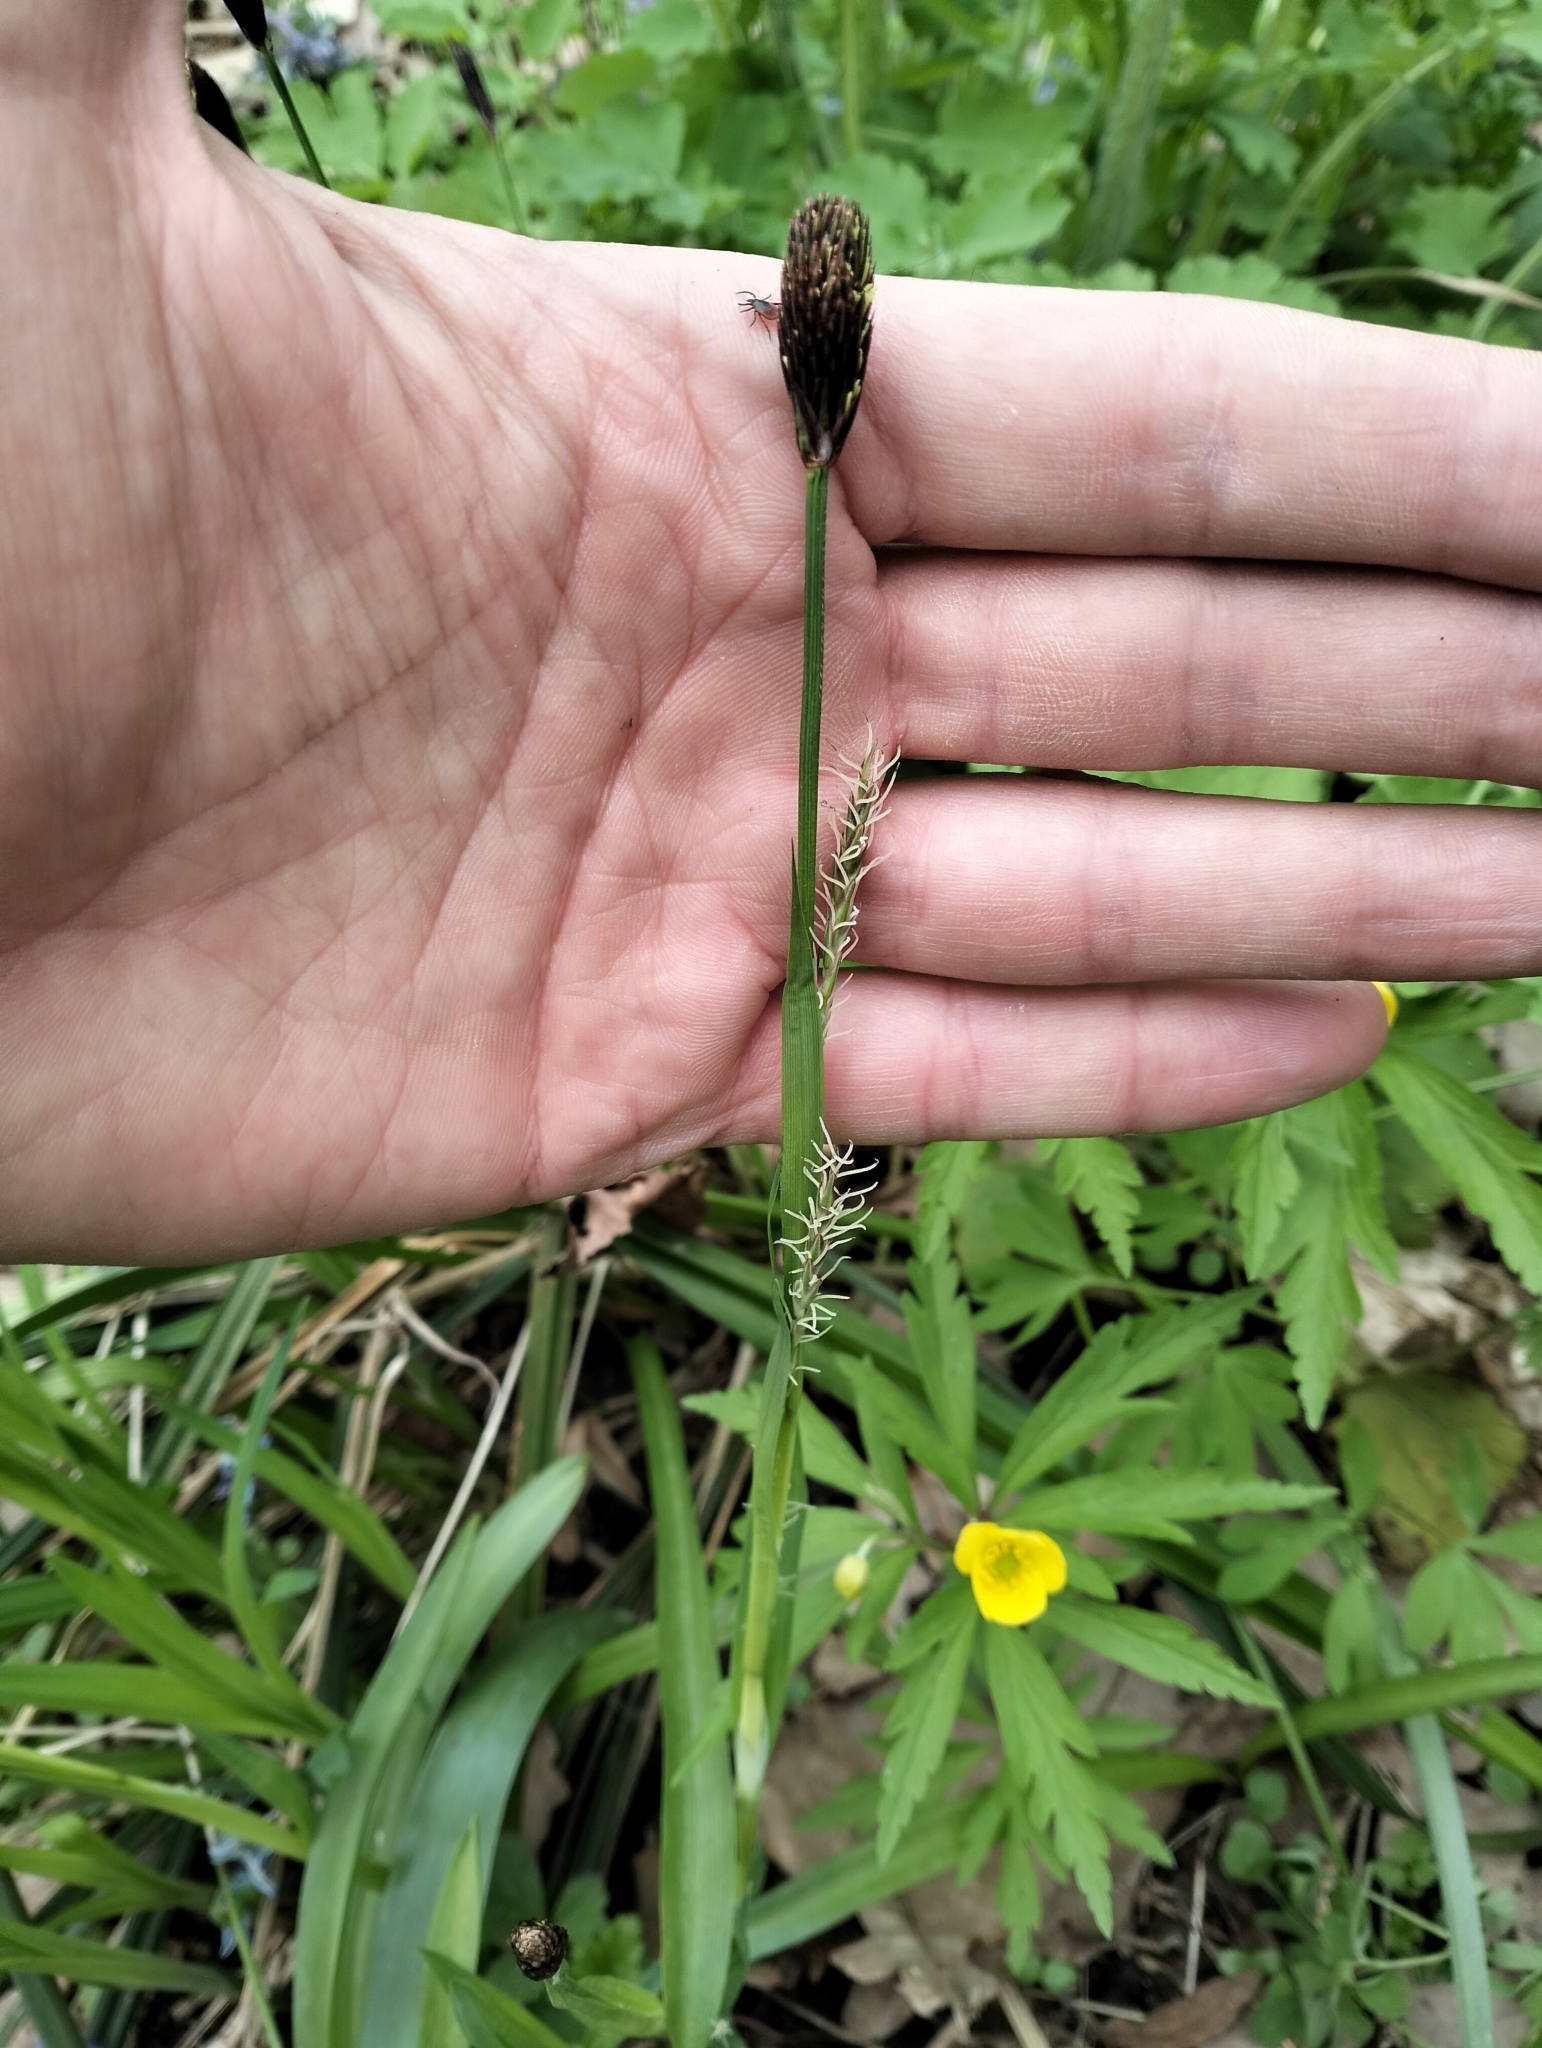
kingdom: Plantae
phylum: Tracheophyta
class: Liliopsida
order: Poales
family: Cyperaceae
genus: Carex
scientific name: Carex pilosa
